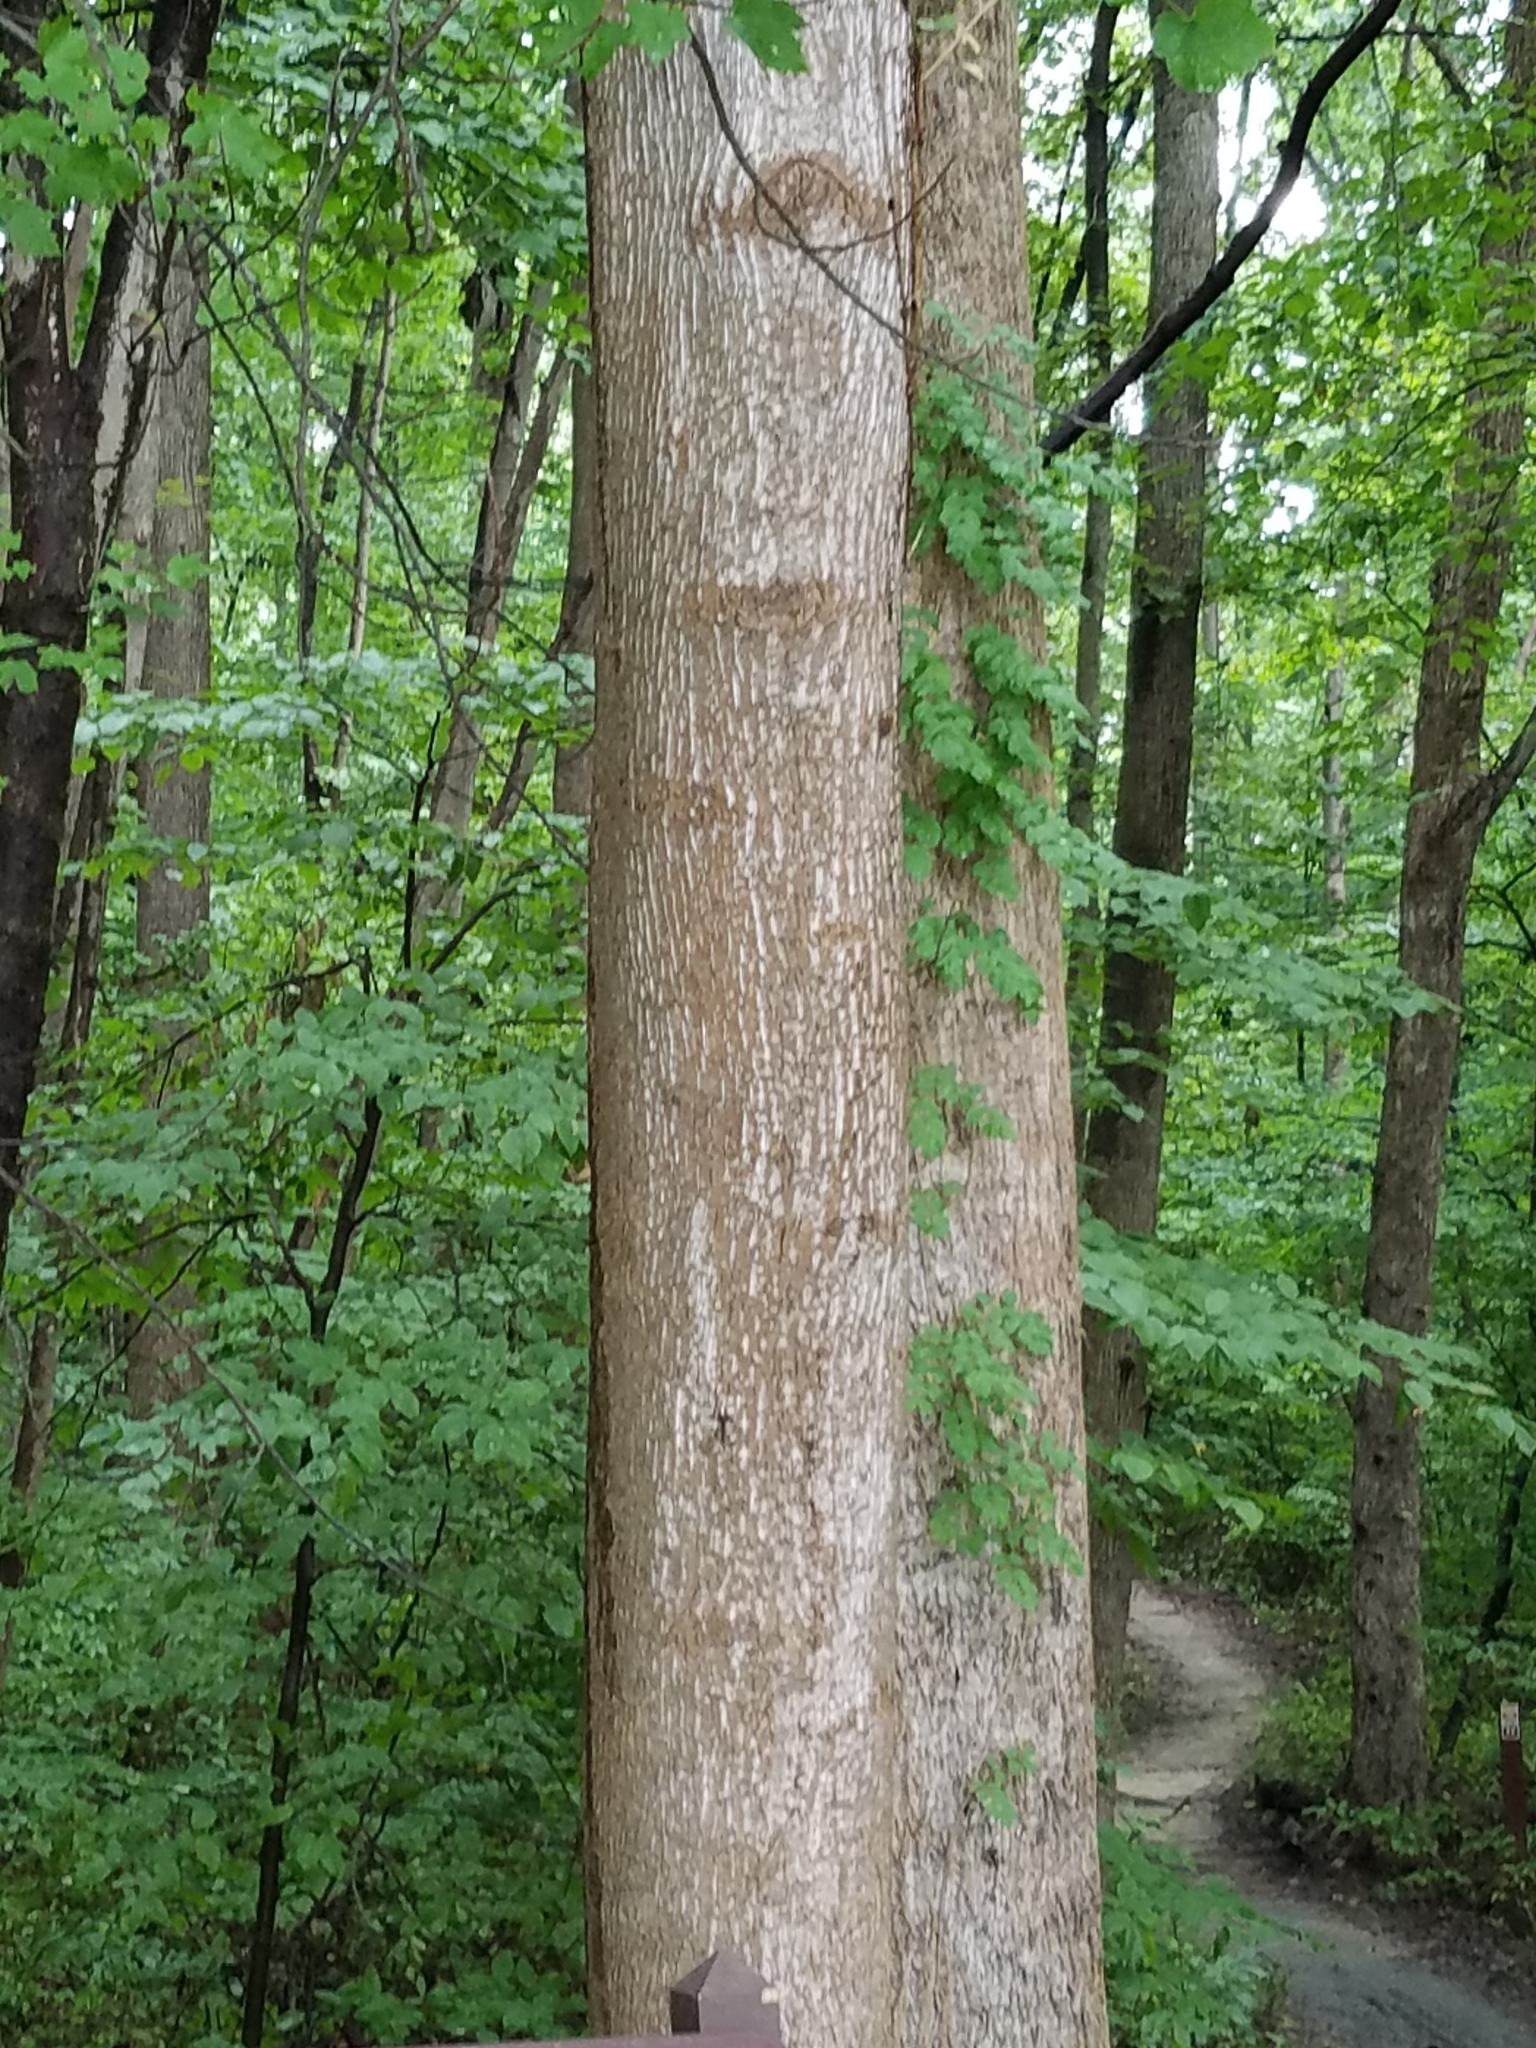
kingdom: Plantae
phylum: Tracheophyta
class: Magnoliopsida
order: Magnoliales
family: Magnoliaceae
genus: Liriodendron
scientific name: Liriodendron tulipifera
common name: Tulip tree
